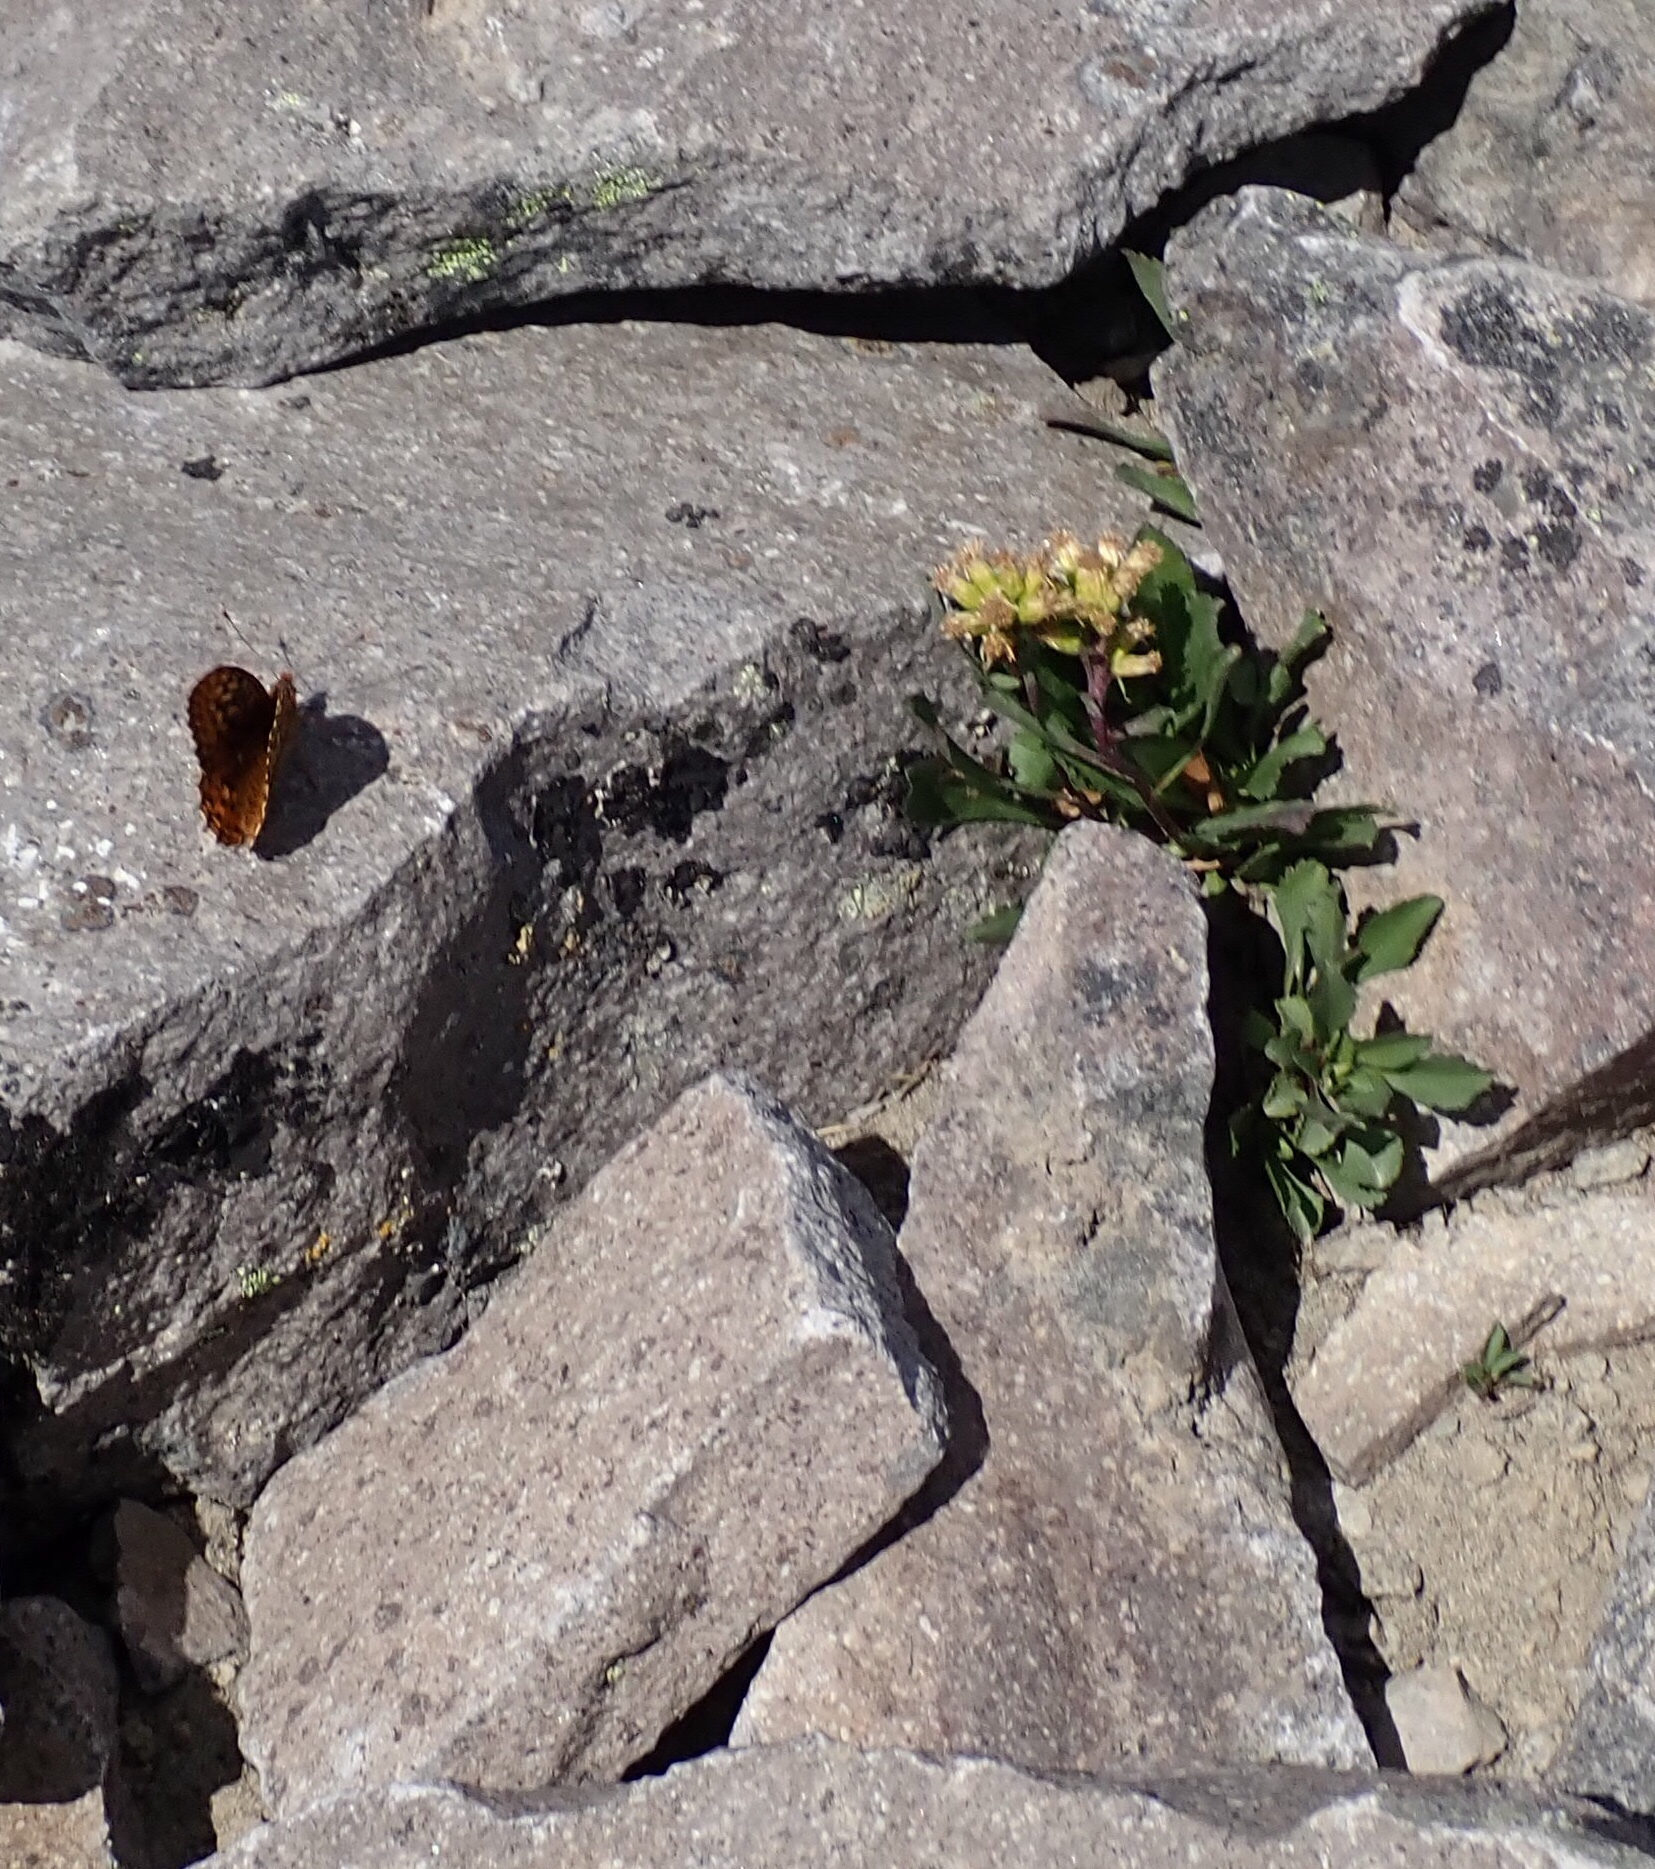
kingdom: Animalia
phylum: Arthropoda
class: Insecta
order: Lepidoptera
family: Nymphalidae
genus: Speyeria
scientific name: Speyeria hydaspe
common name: Hydaspe fritillary
